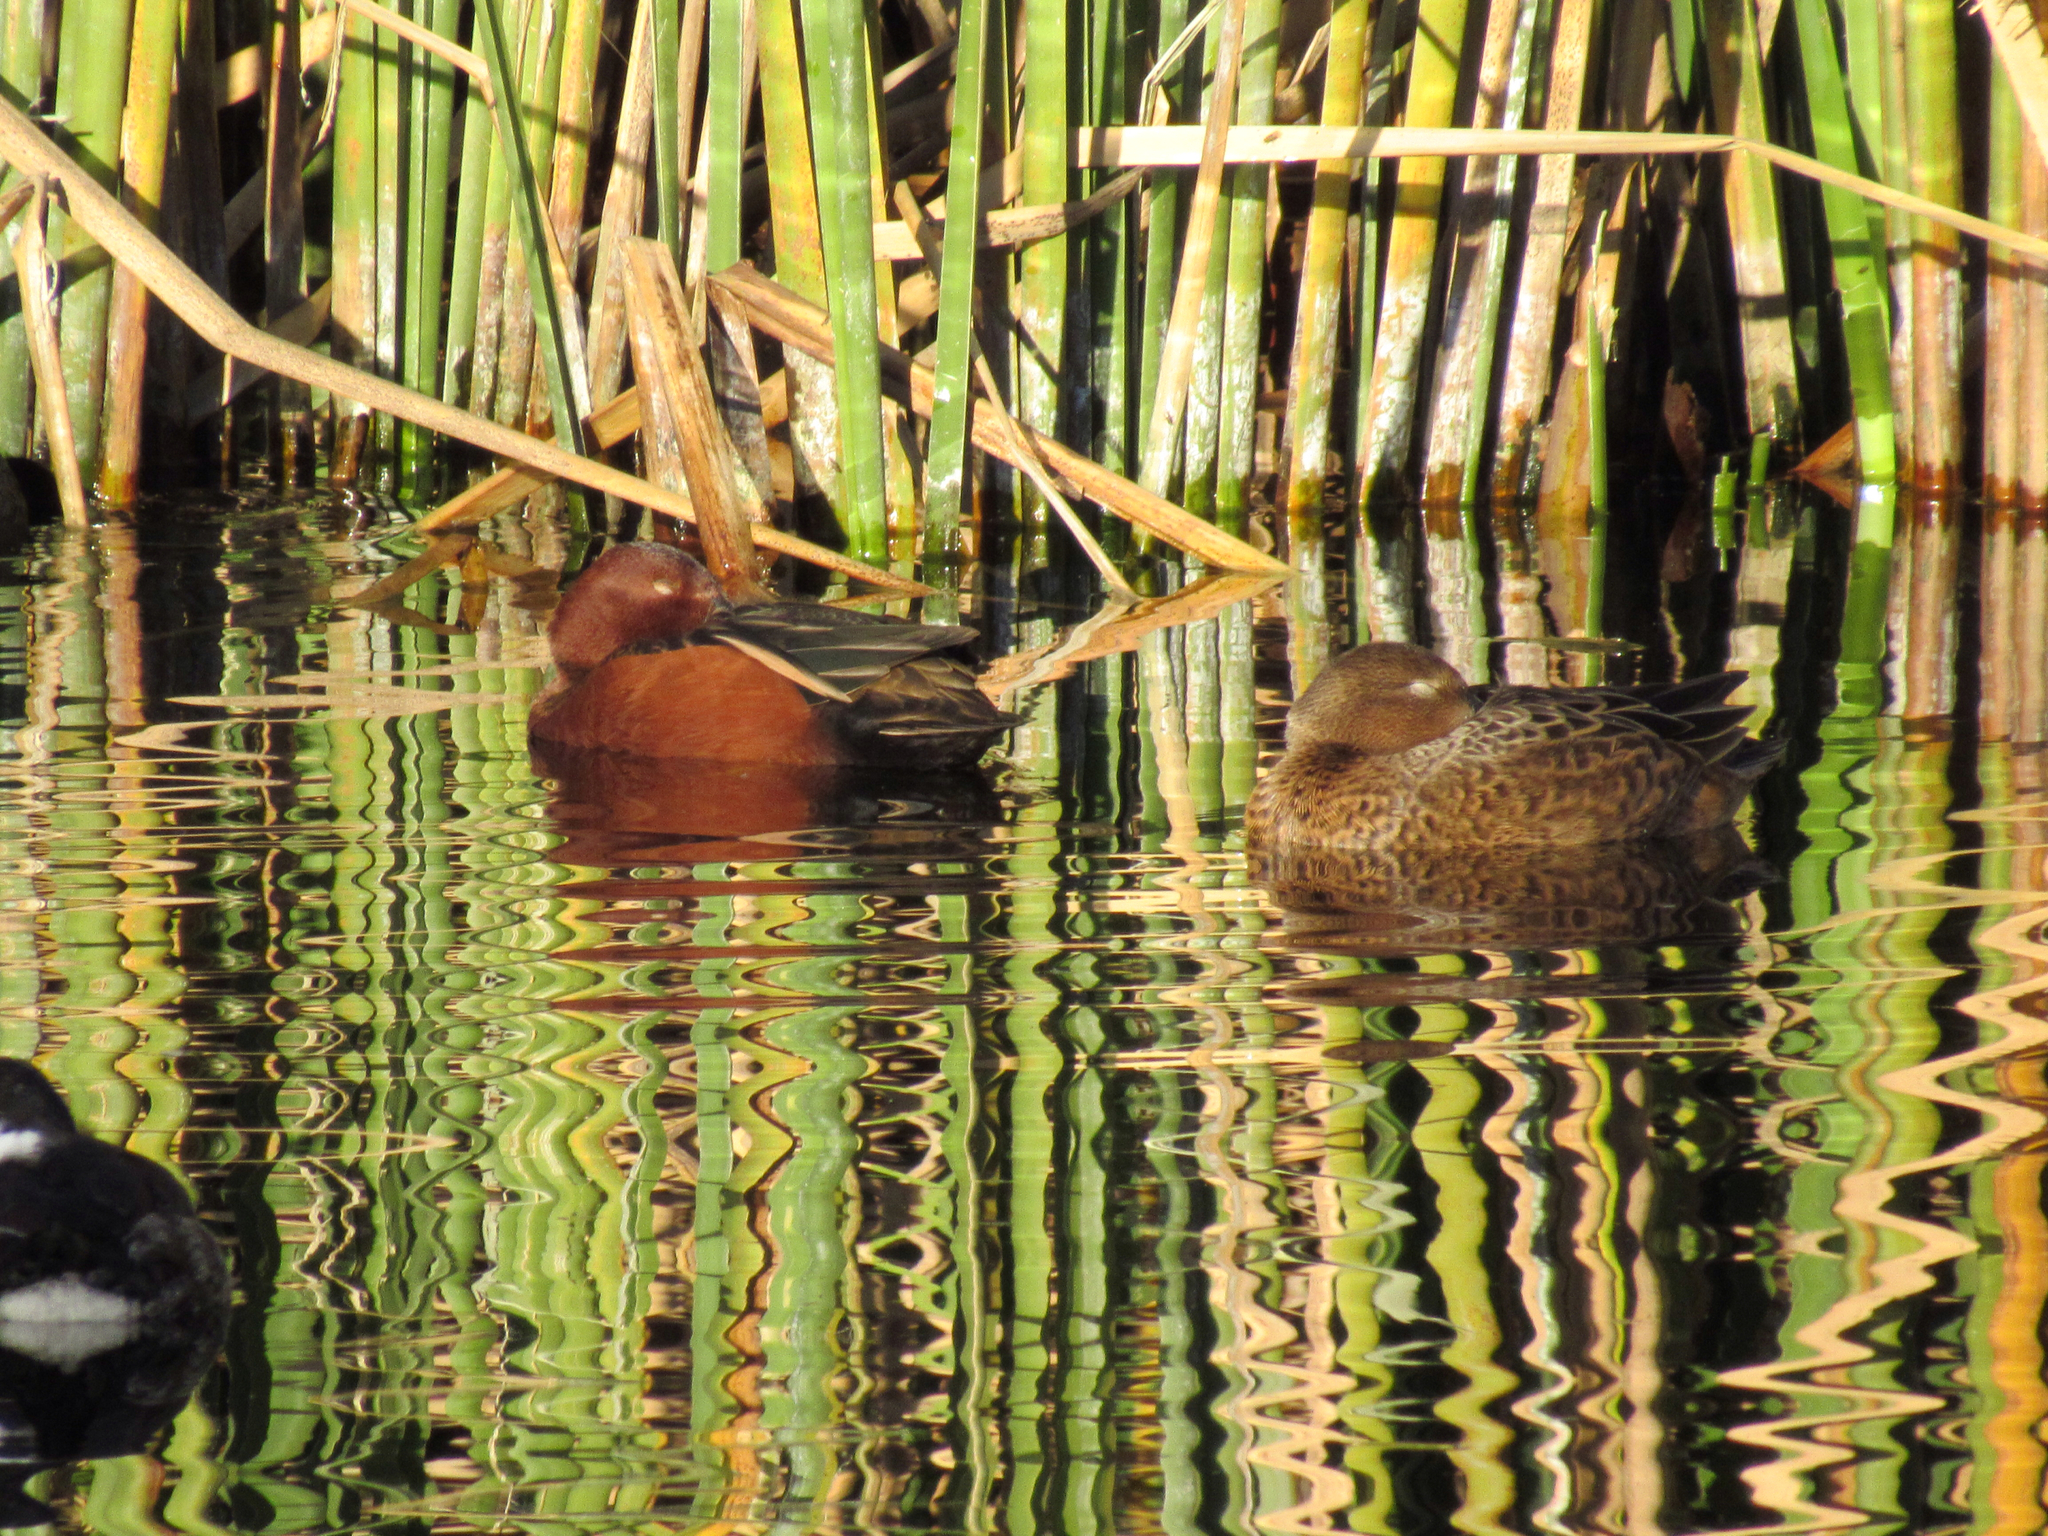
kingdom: Animalia
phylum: Chordata
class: Aves
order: Anseriformes
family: Anatidae
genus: Spatula
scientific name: Spatula cyanoptera
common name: Cinnamon teal
